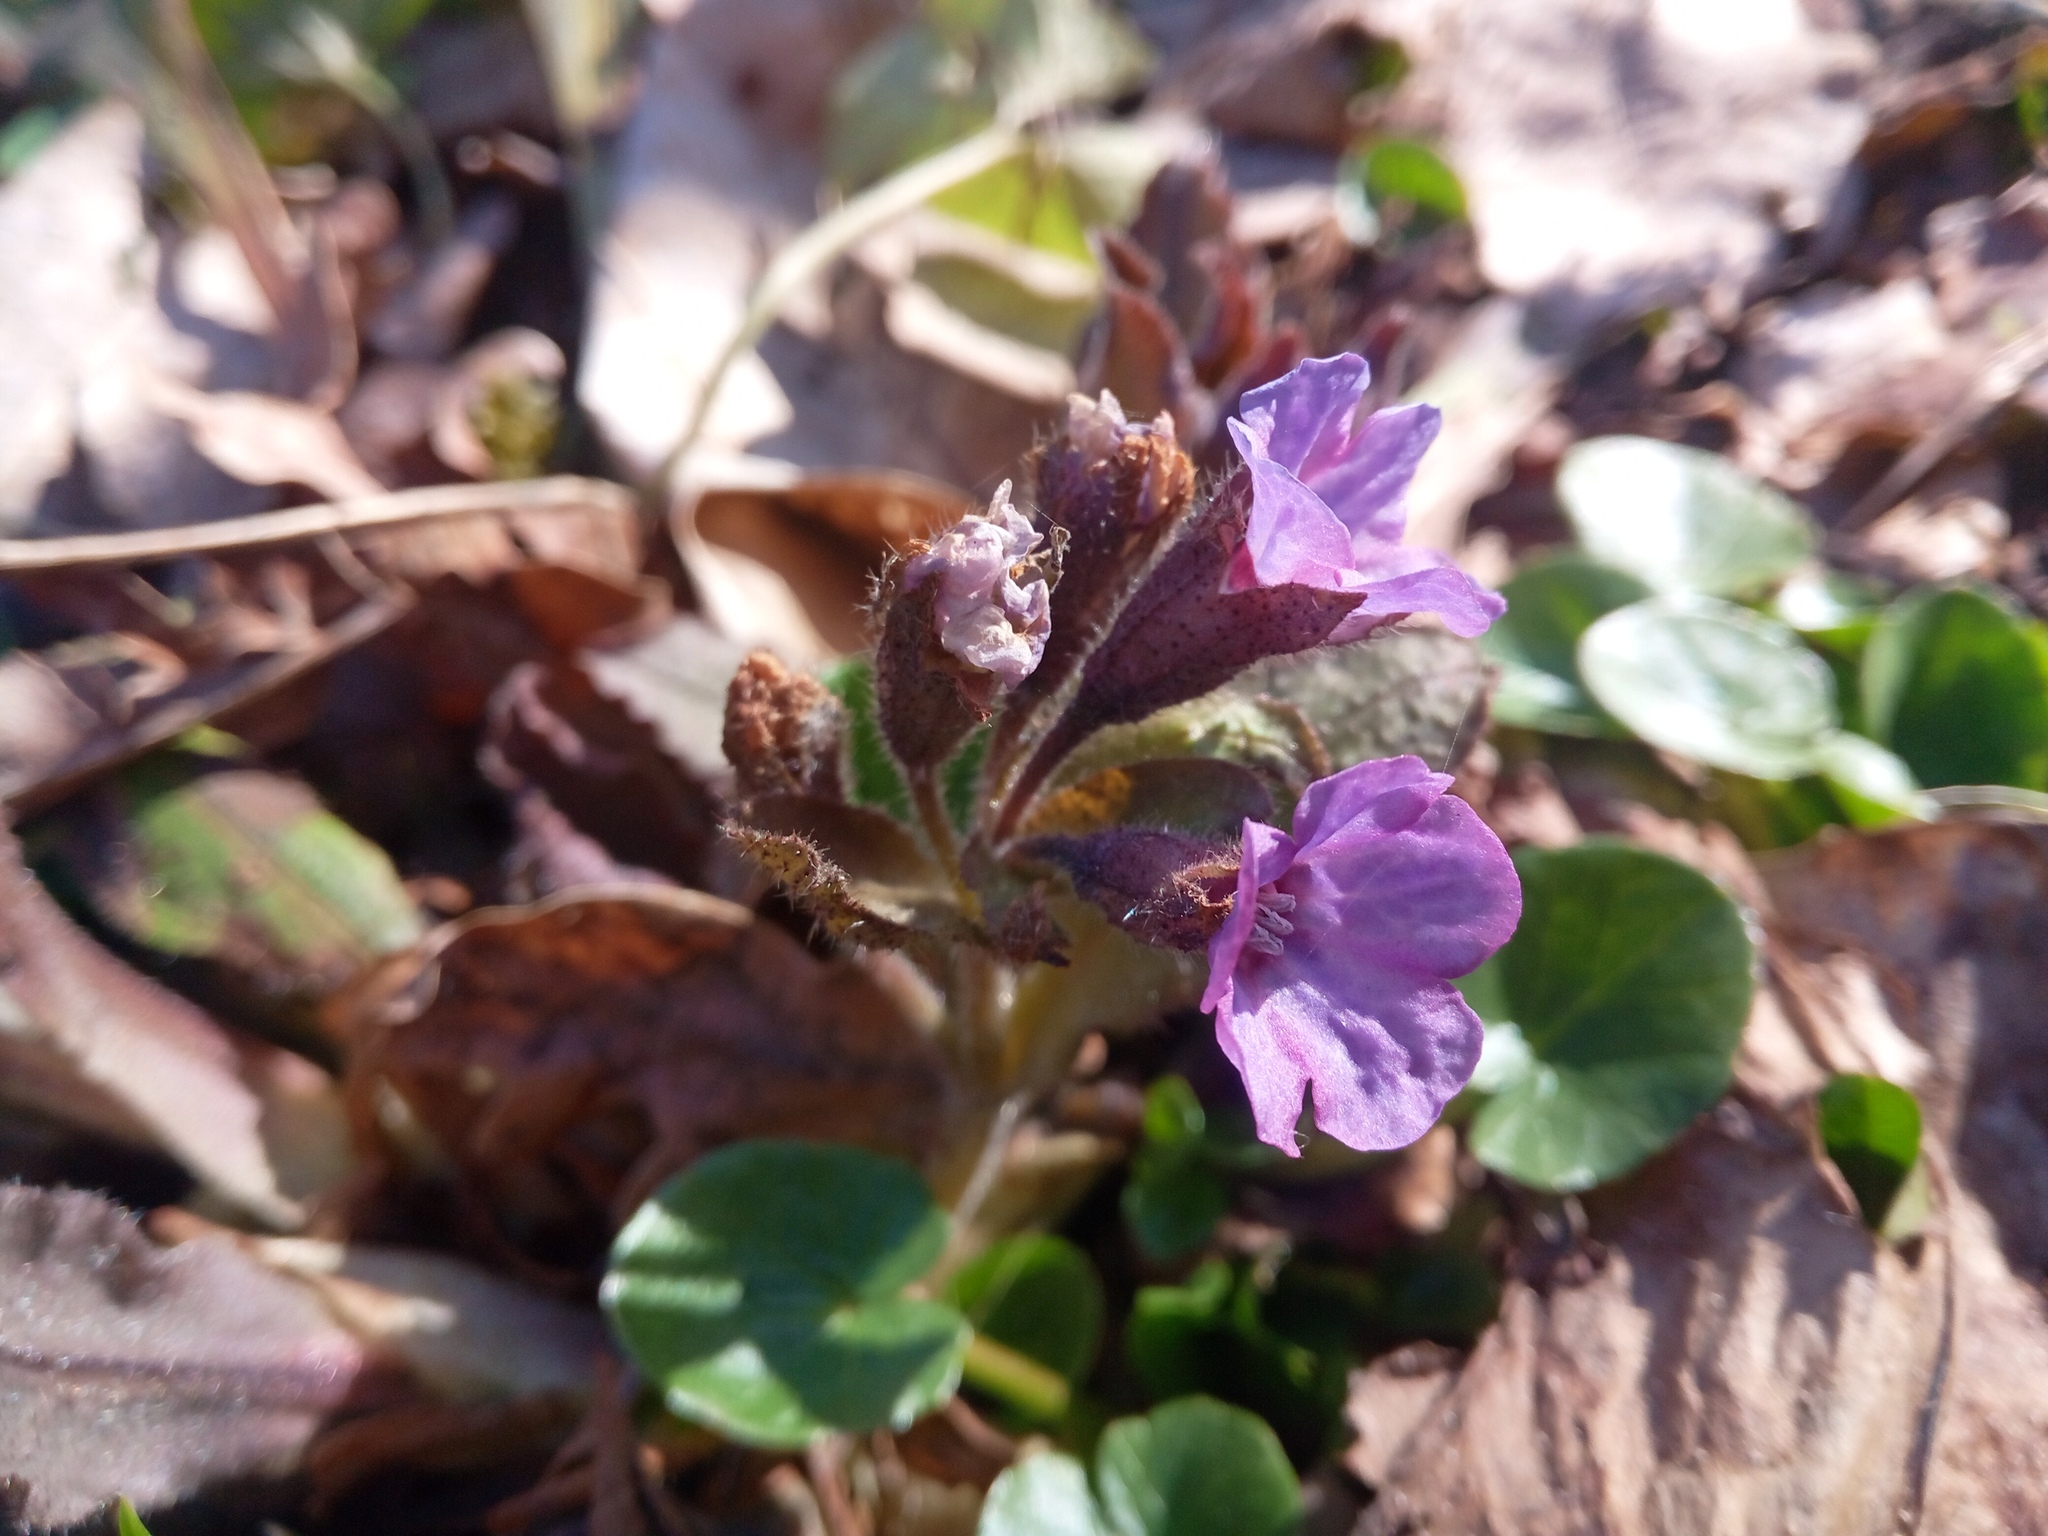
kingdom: Plantae
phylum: Tracheophyta
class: Magnoliopsida
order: Boraginales
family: Boraginaceae
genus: Pulmonaria
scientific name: Pulmonaria obscura
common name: Suffolk lungwort
